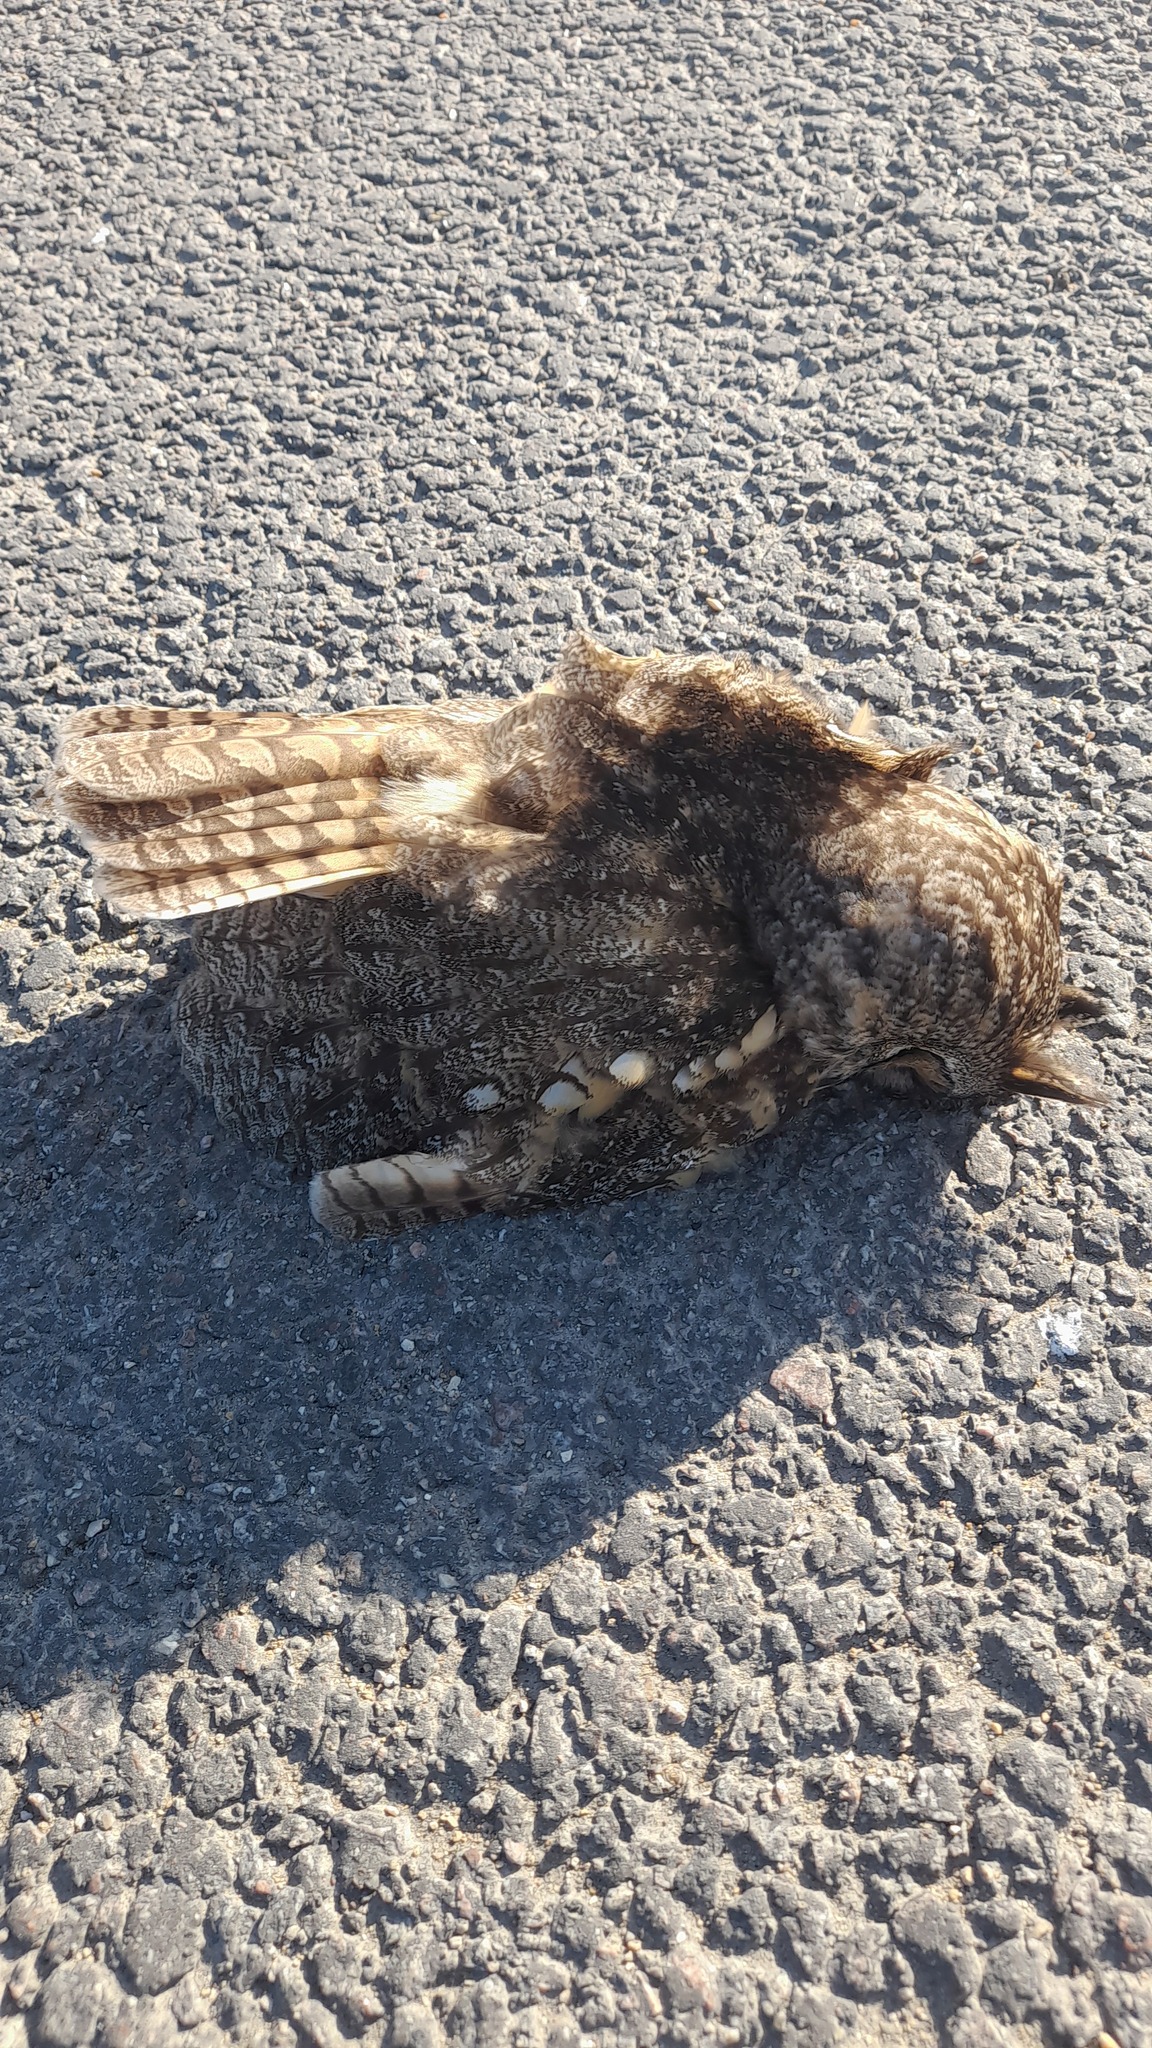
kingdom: Animalia
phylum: Chordata
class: Aves
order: Strigiformes
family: Strigidae
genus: Asio
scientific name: Asio otus
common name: Long-eared owl
